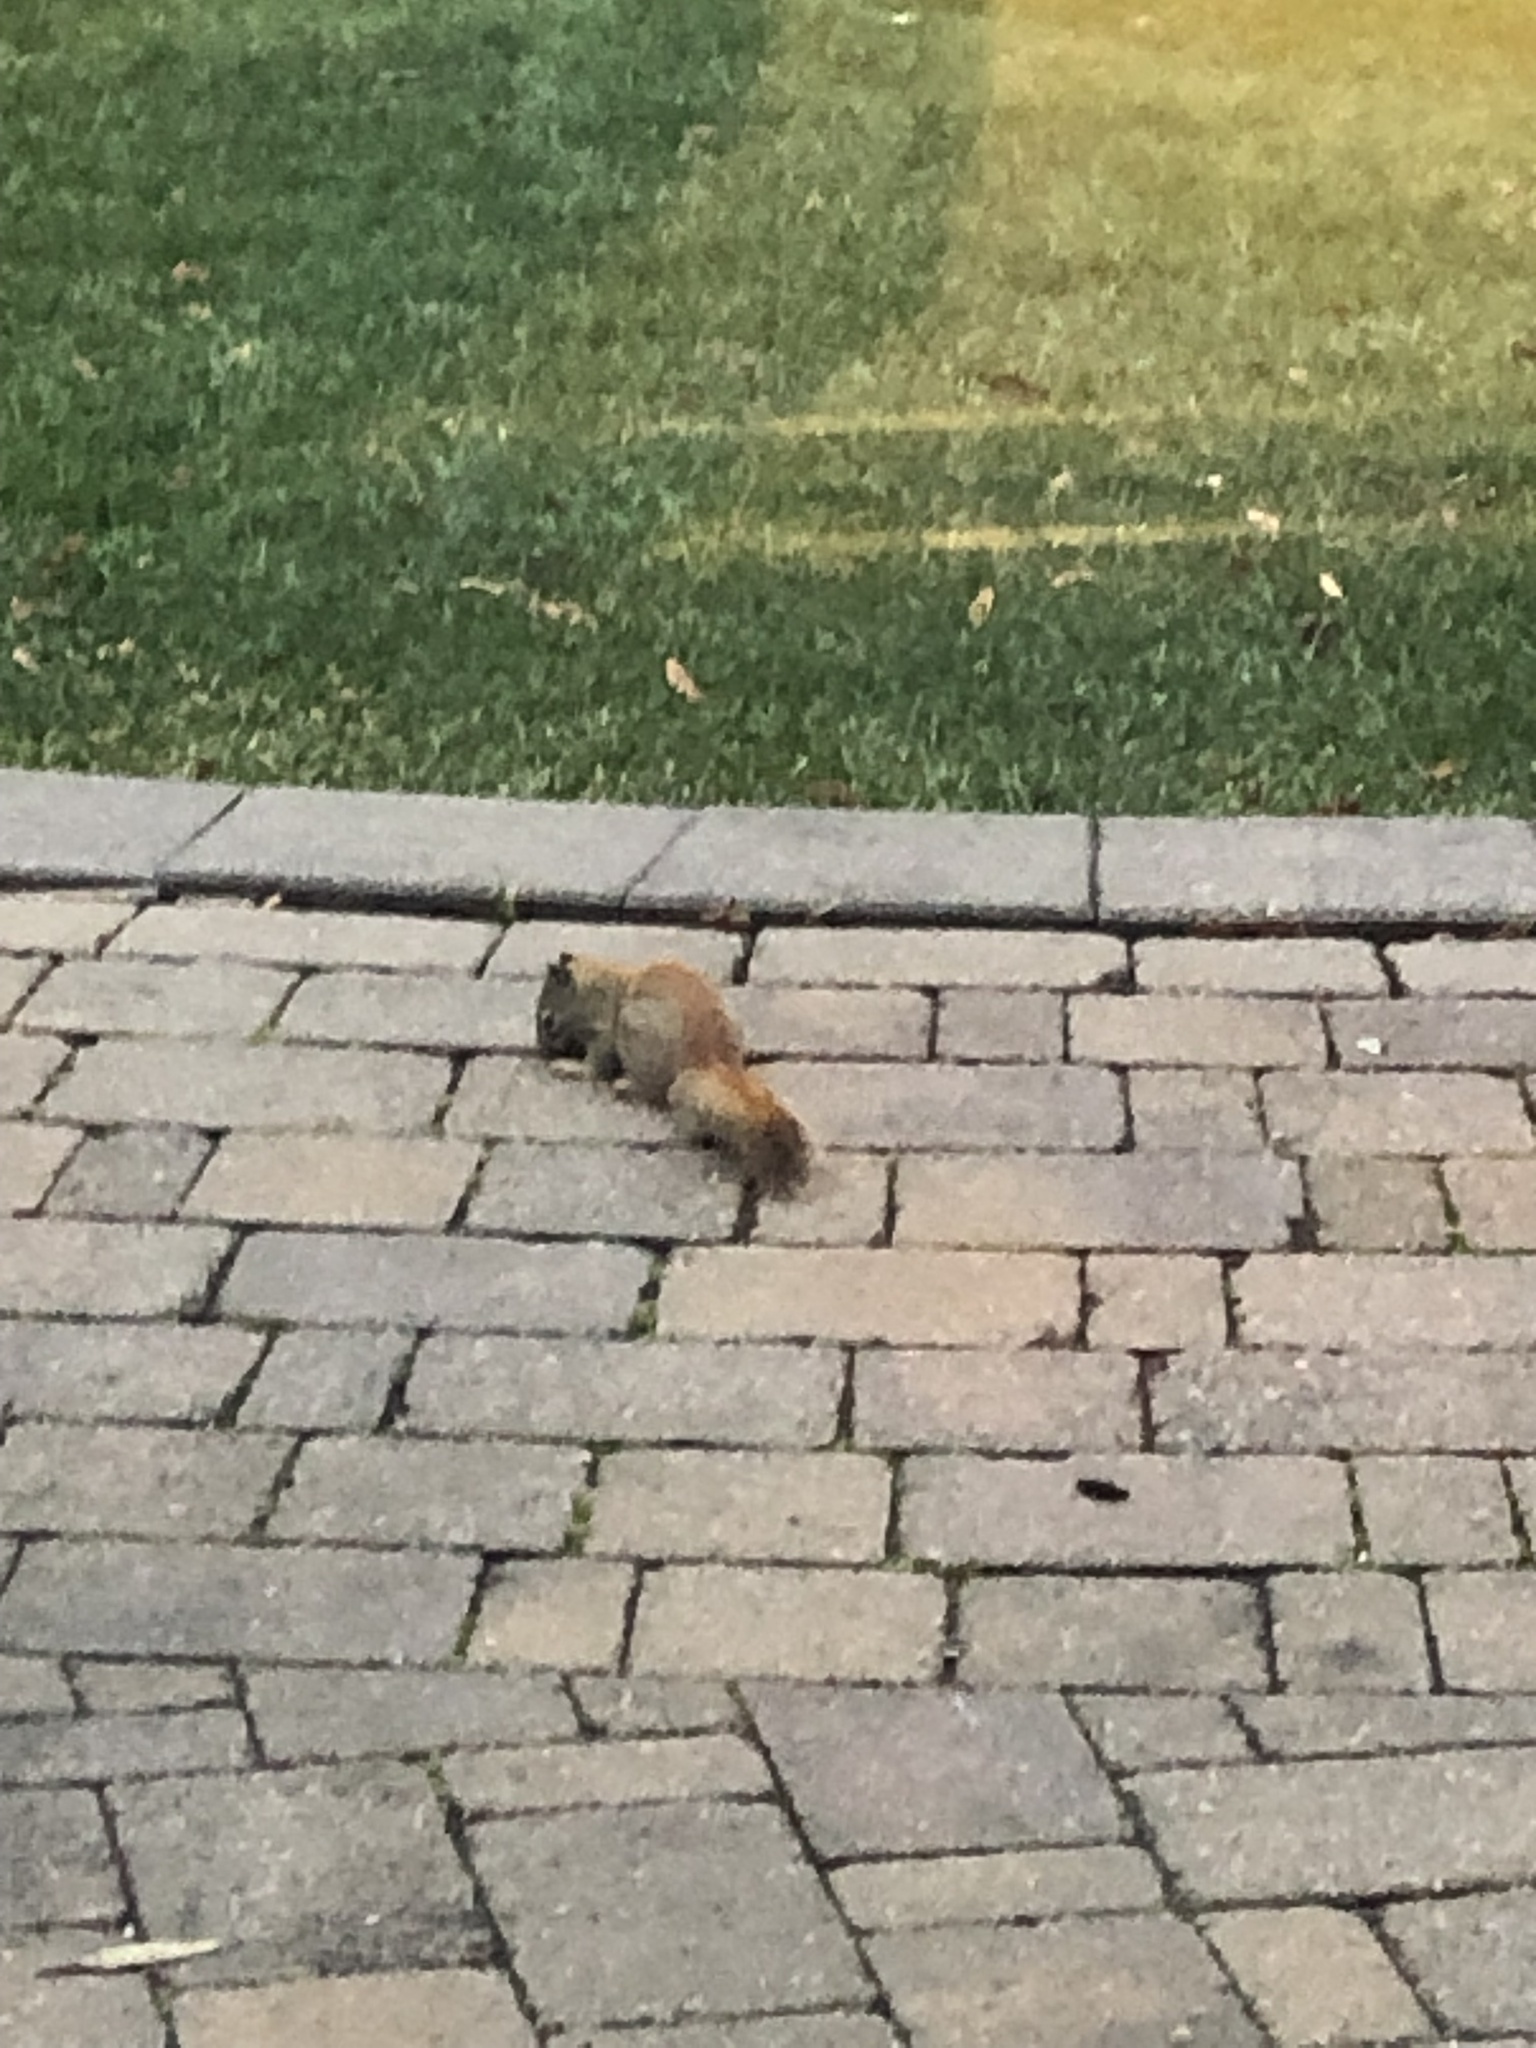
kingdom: Animalia
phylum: Chordata
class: Mammalia
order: Rodentia
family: Sciuridae
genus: Tamiasciurus
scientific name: Tamiasciurus hudsonicus
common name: Red squirrel
